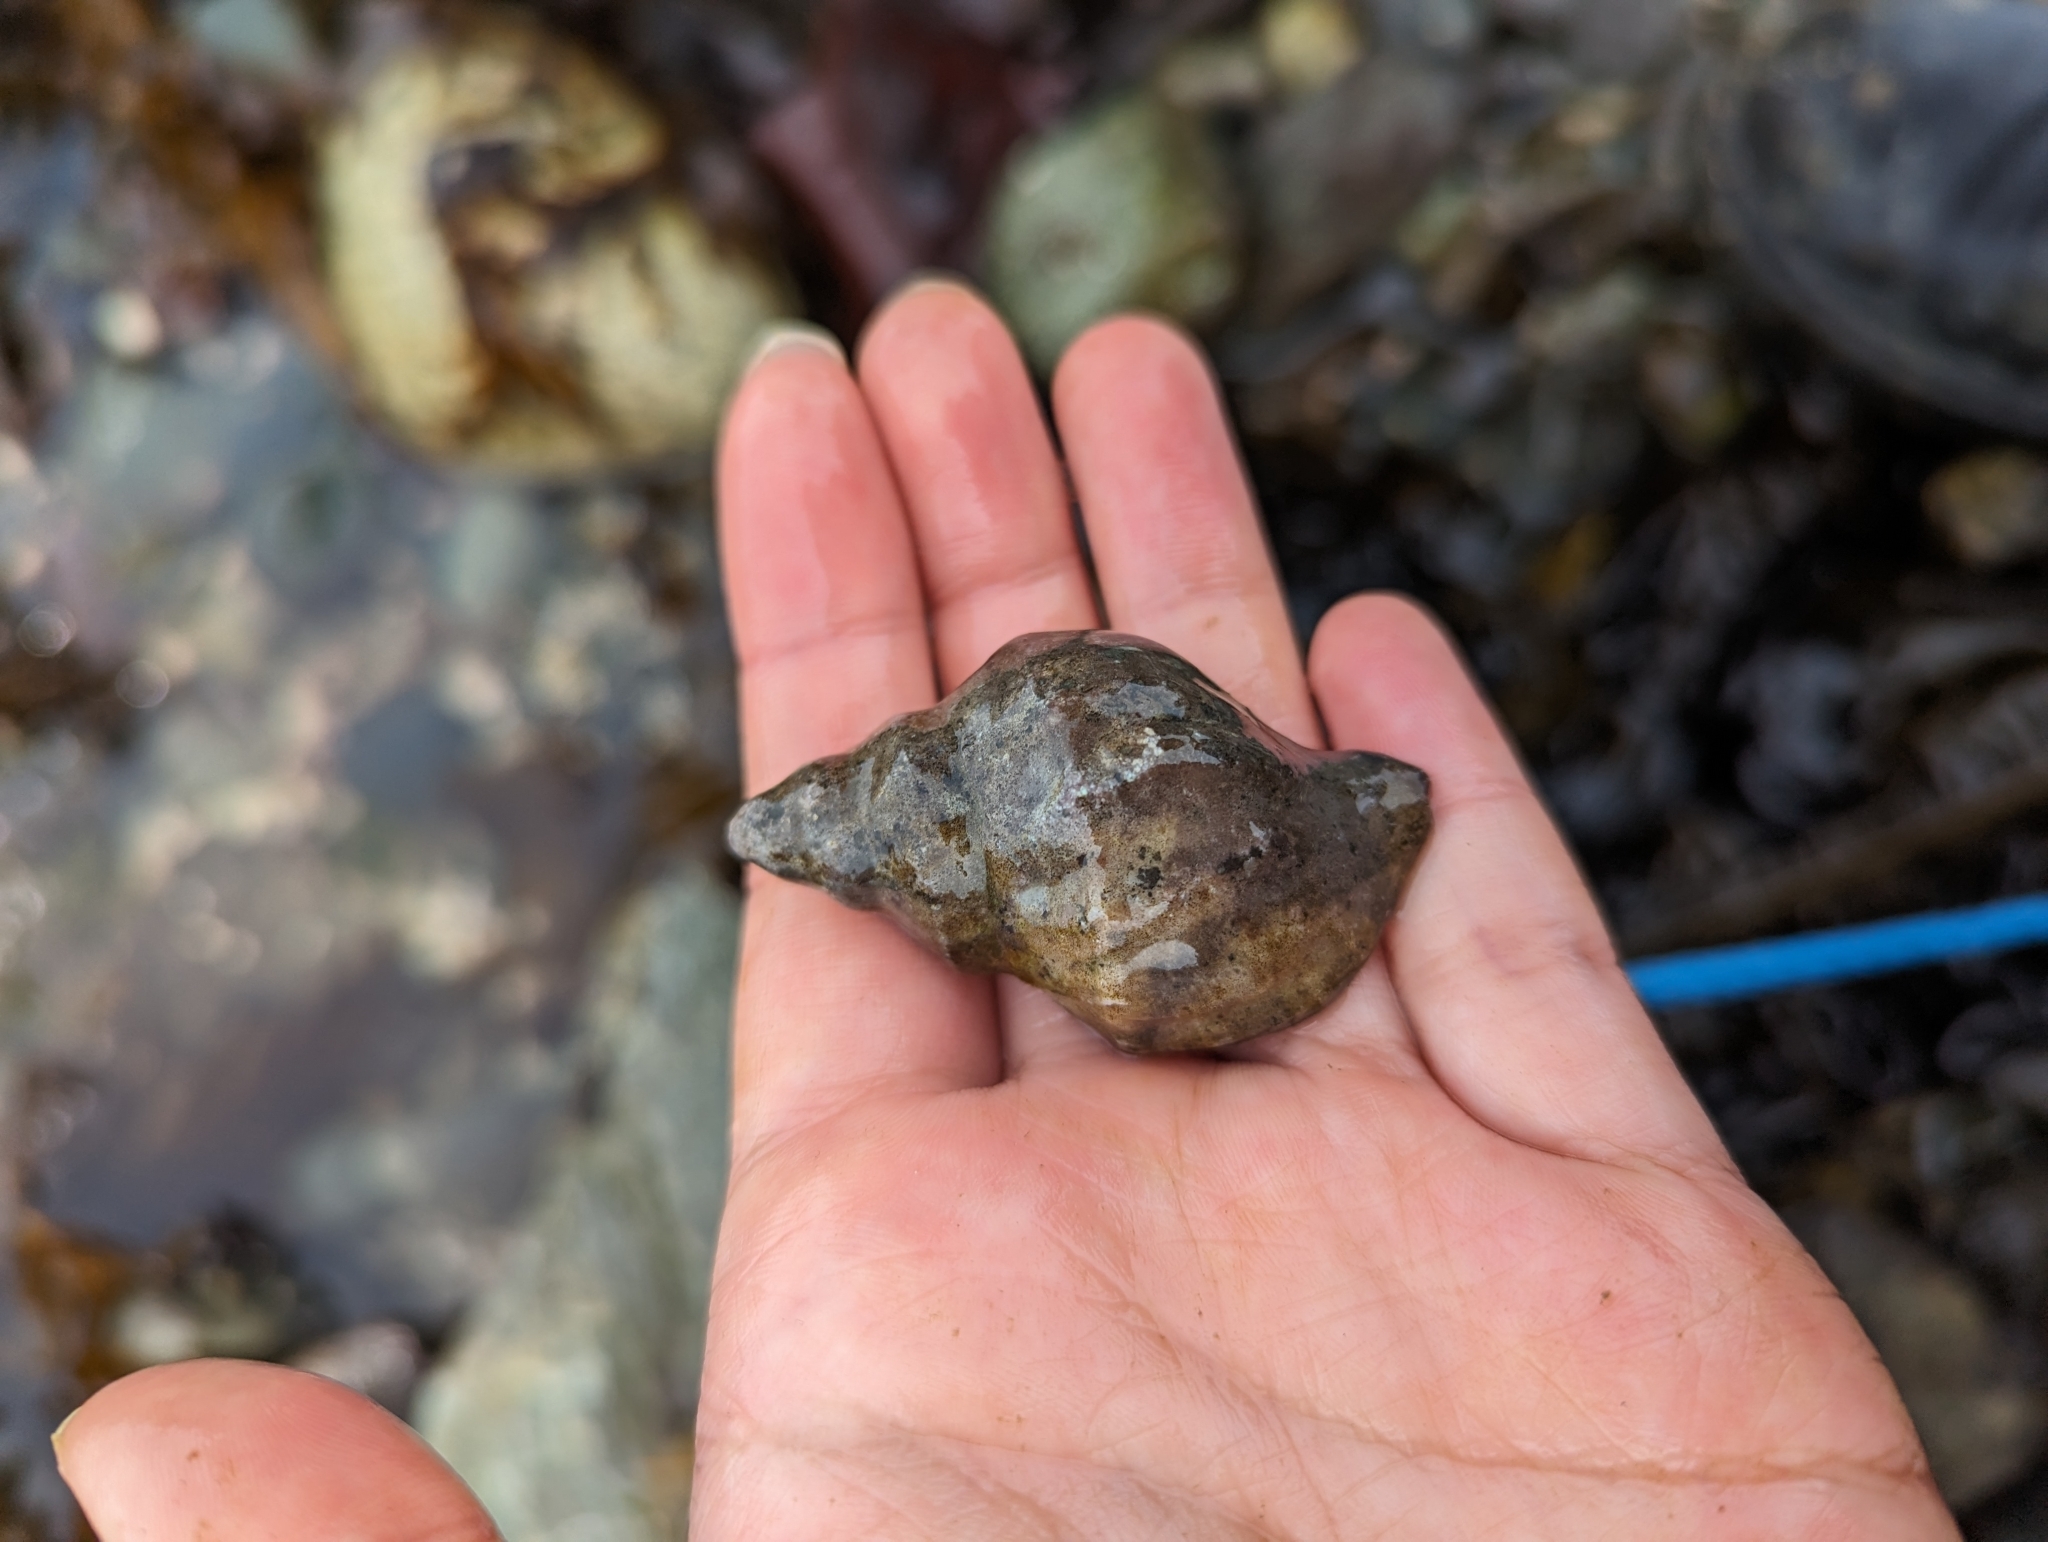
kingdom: Animalia
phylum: Mollusca
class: Gastropoda
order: Neogastropoda
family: Muricidae
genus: Nucella
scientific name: Nucella lamellosa
